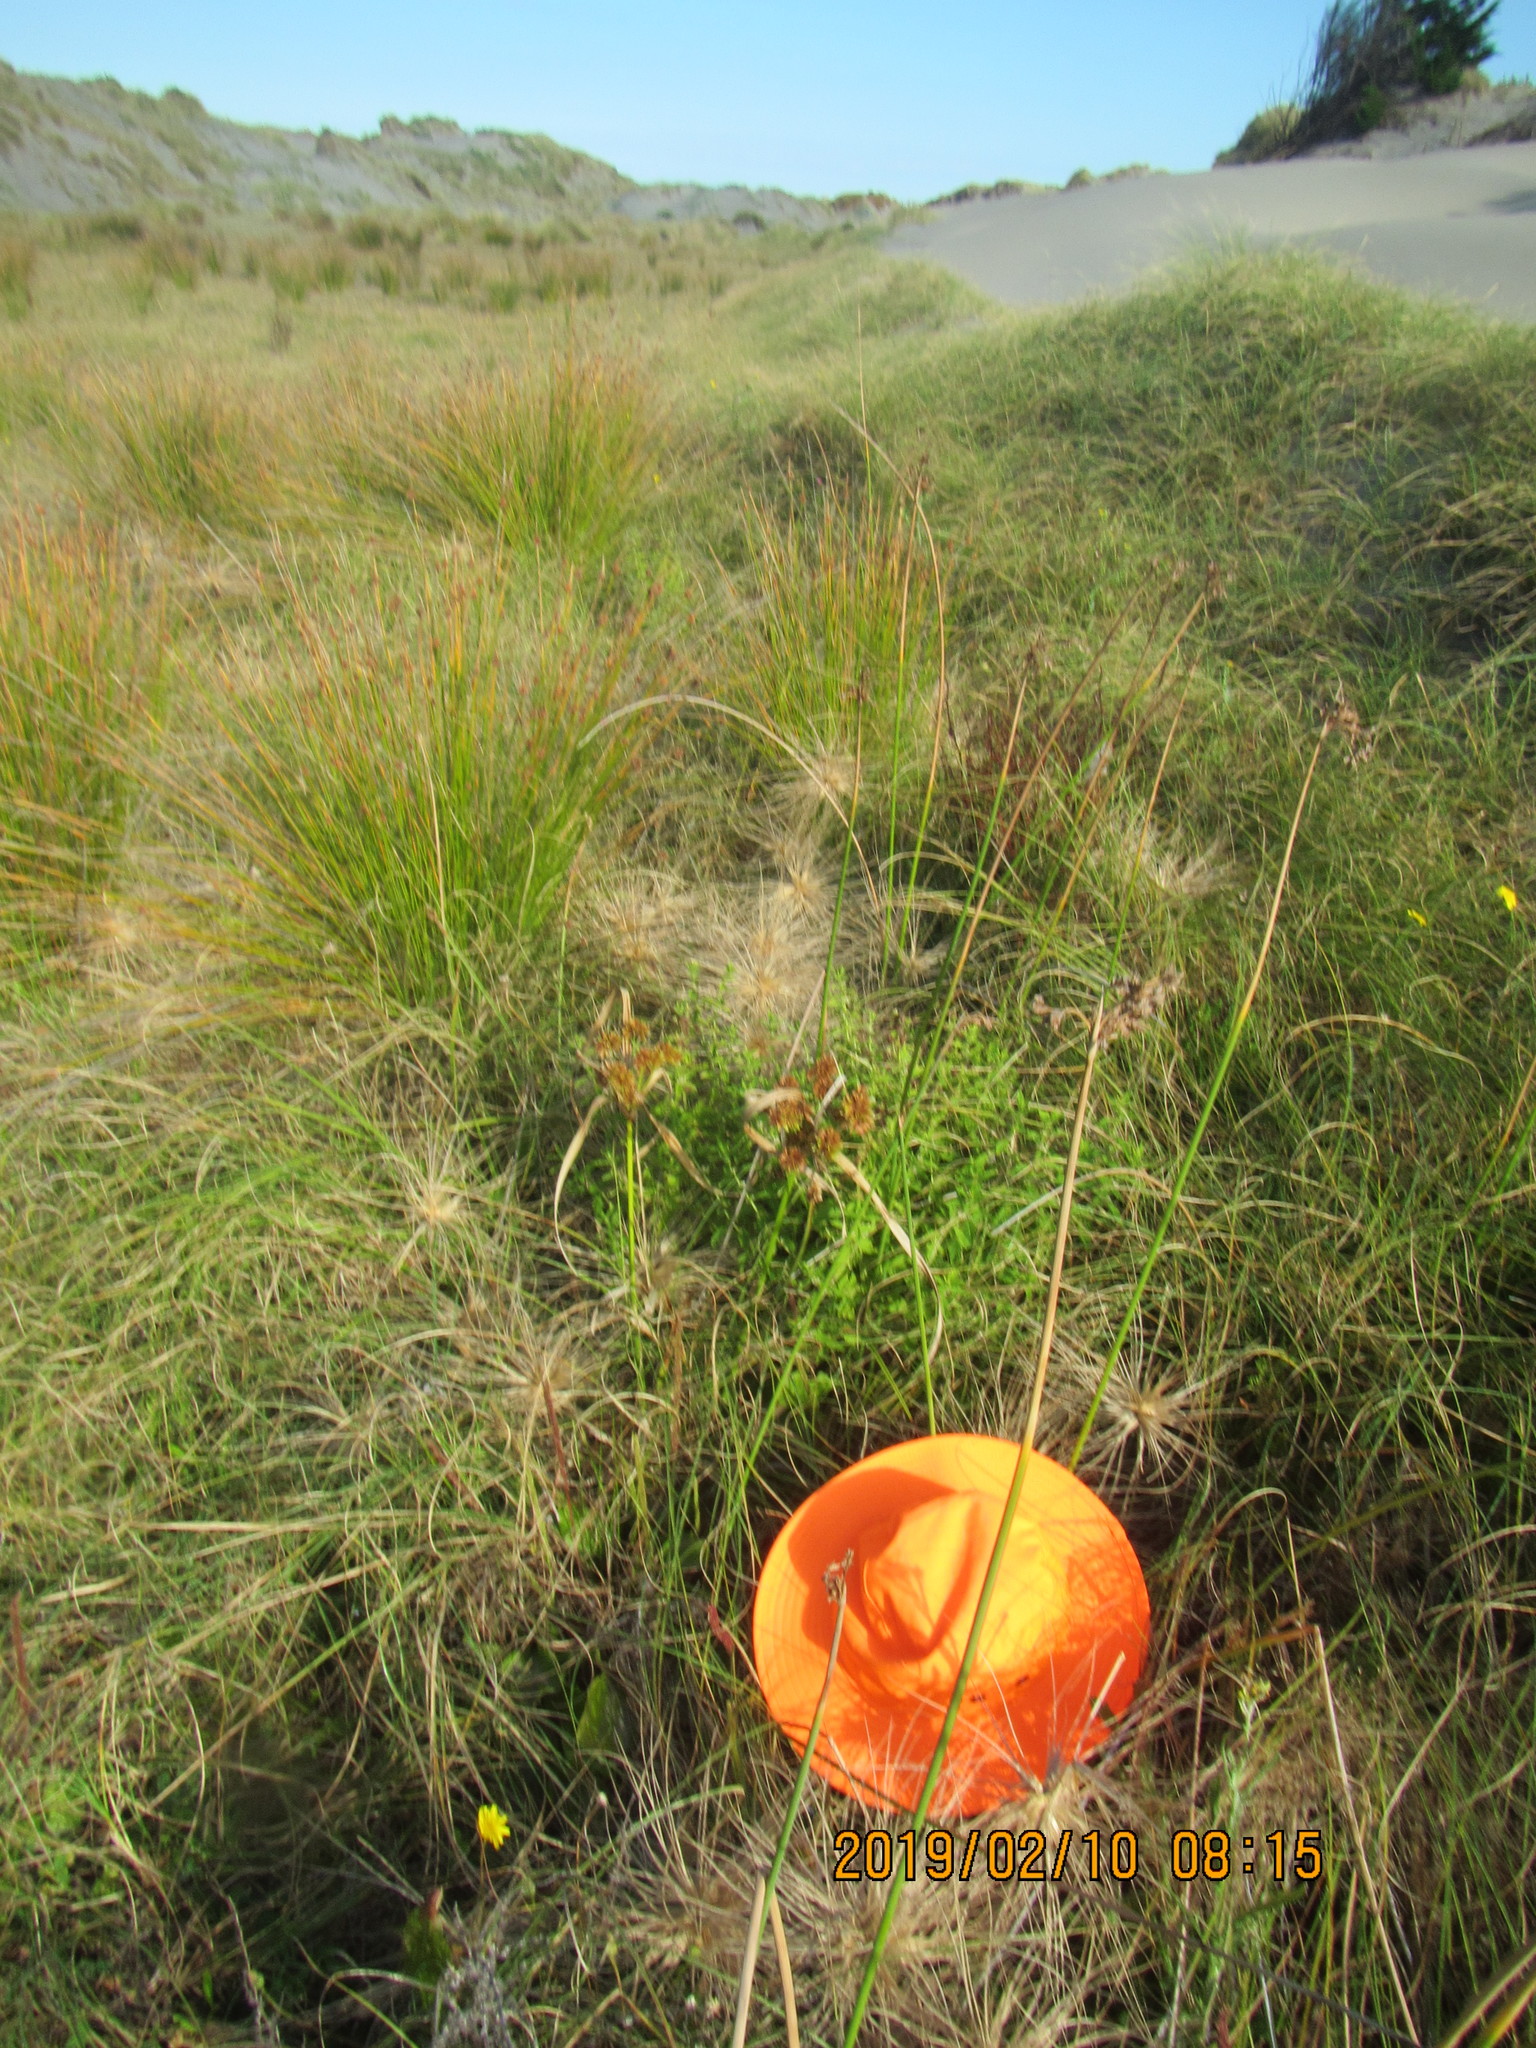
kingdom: Plantae
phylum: Tracheophyta
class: Magnoliopsida
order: Lamiales
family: Lamiaceae
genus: Lycopus
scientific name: Lycopus europaeus
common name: European bugleweed
